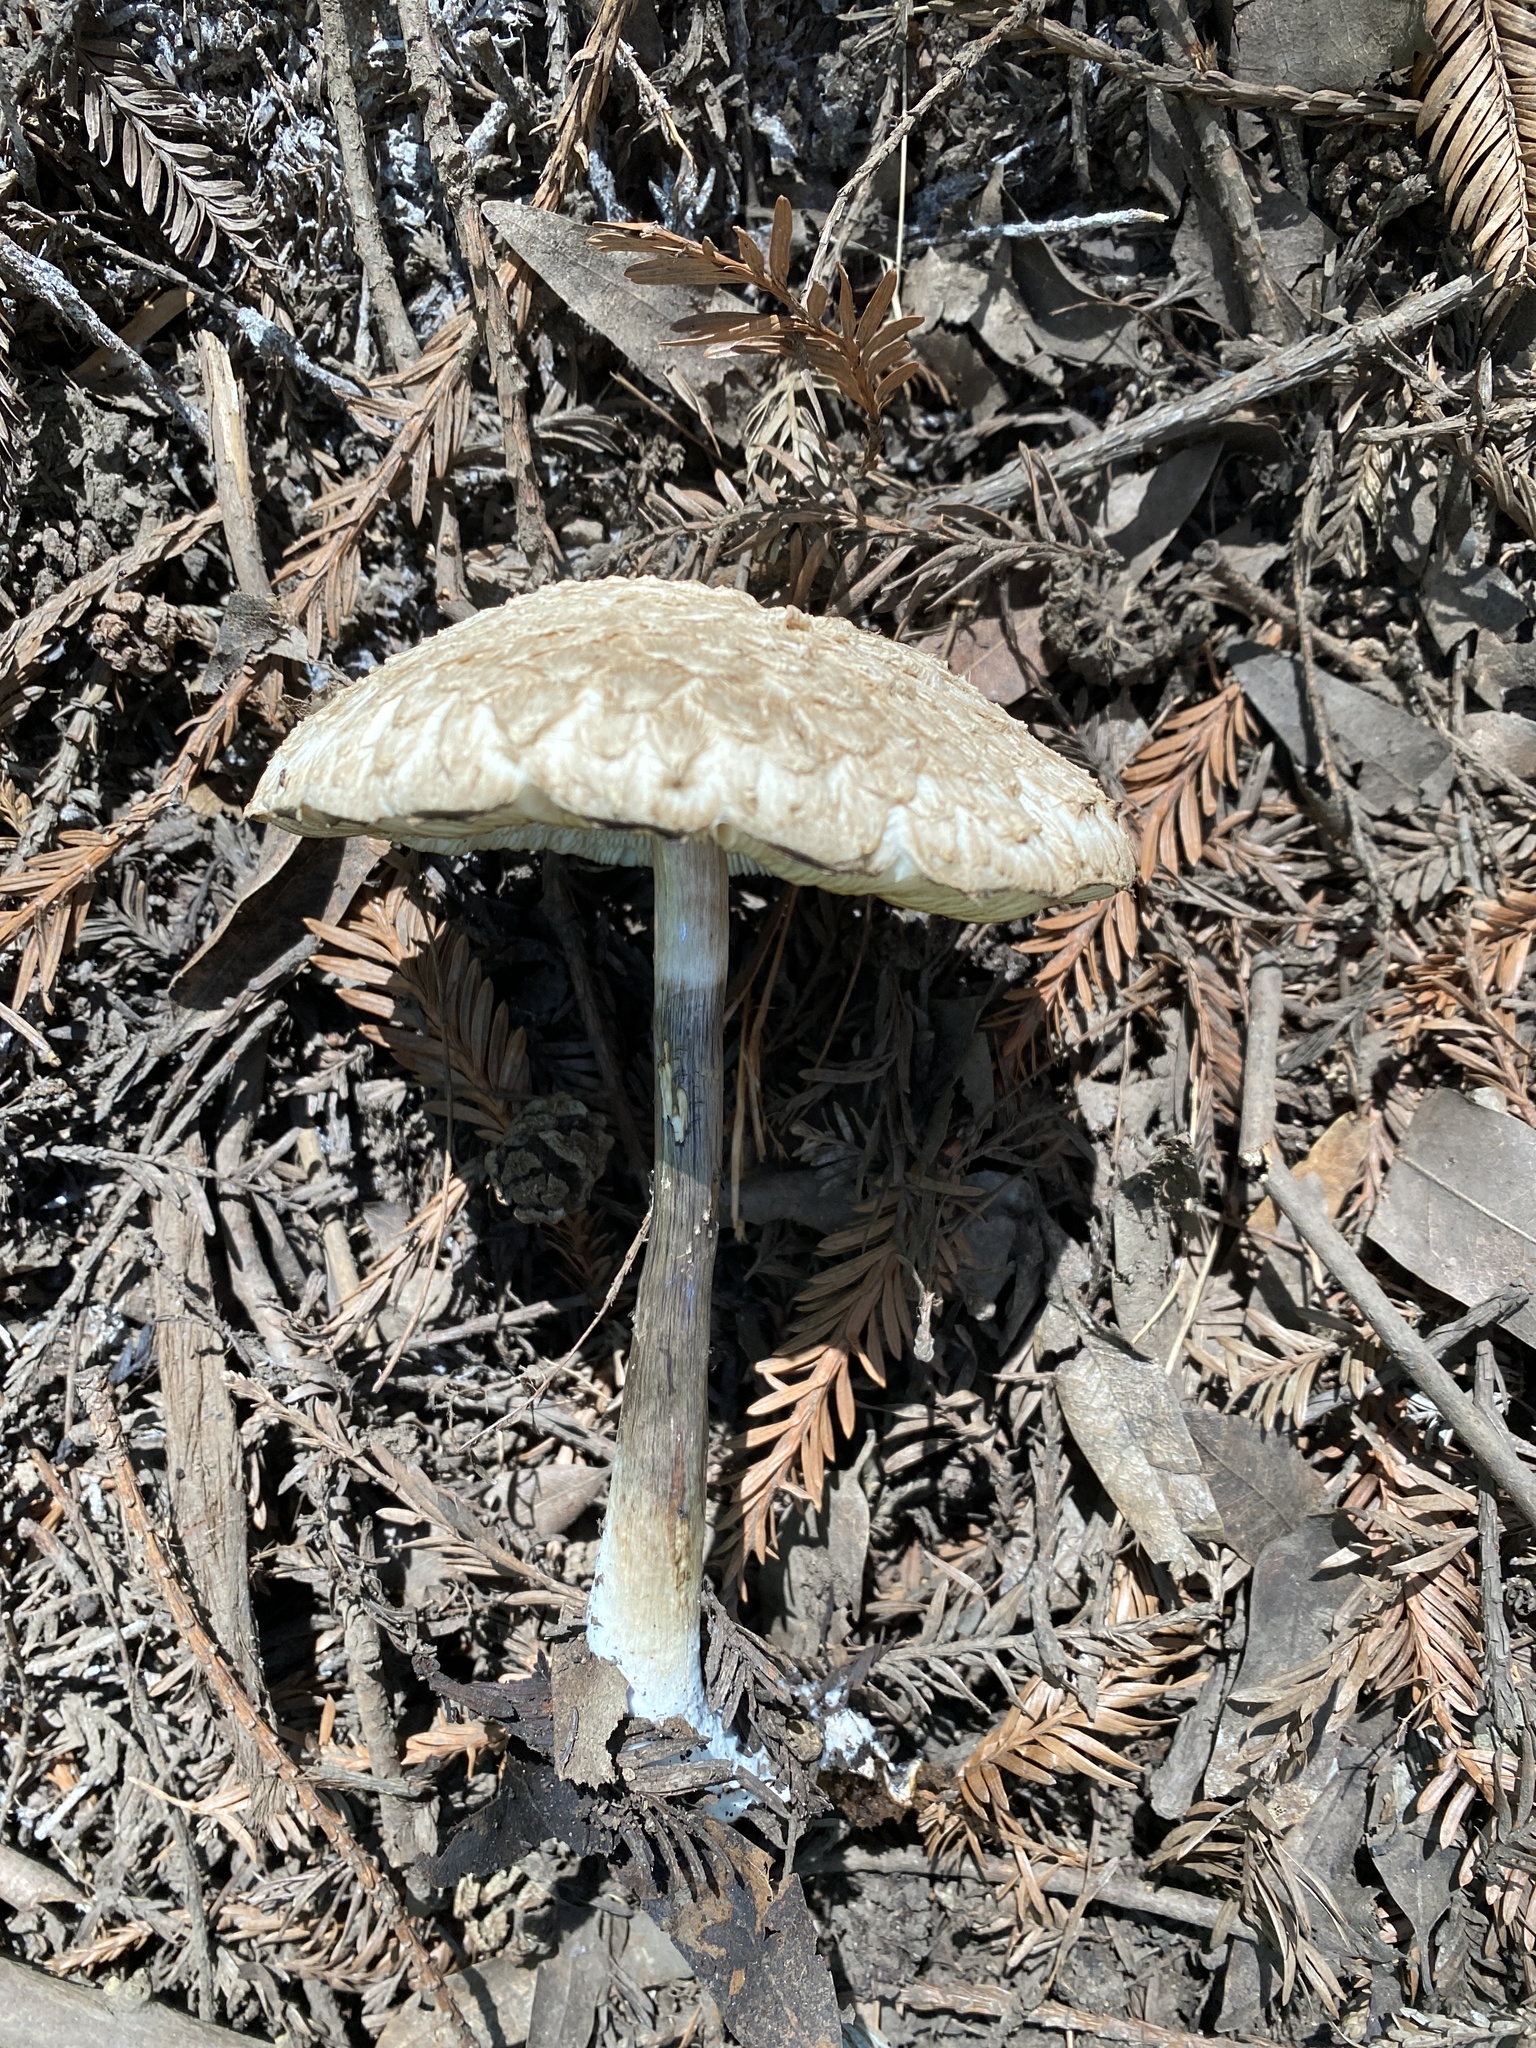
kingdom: Fungi
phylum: Basidiomycota
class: Agaricomycetes
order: Agaricales
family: Agaricaceae
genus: Chlorophyllum
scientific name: Chlorophyllum rhacodes
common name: Shaggy parasol
